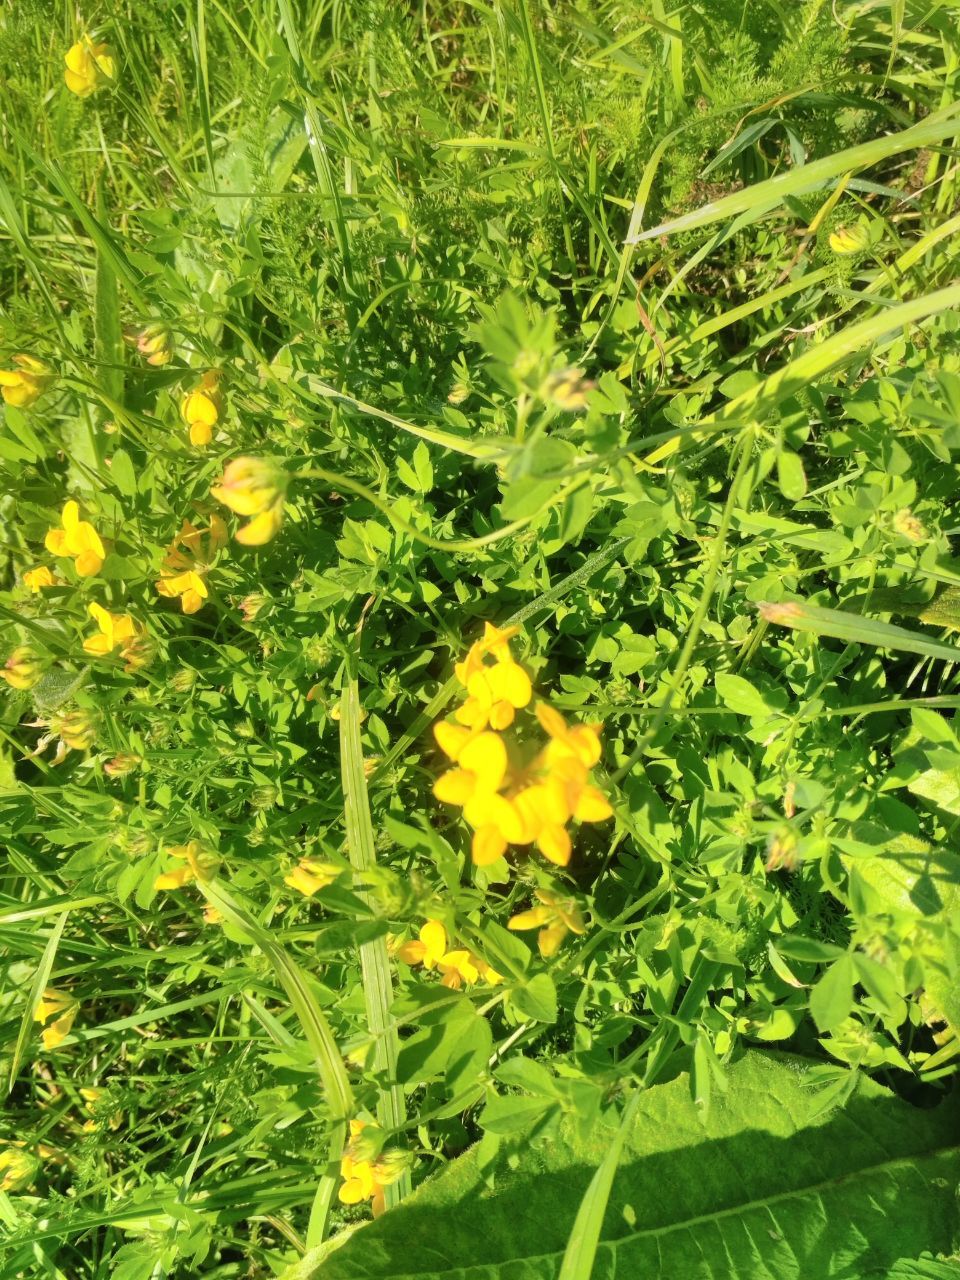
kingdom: Plantae
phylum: Tracheophyta
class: Magnoliopsida
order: Fabales
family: Fabaceae
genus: Lotus
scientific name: Lotus corniculatus
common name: Common bird's-foot-trefoil
